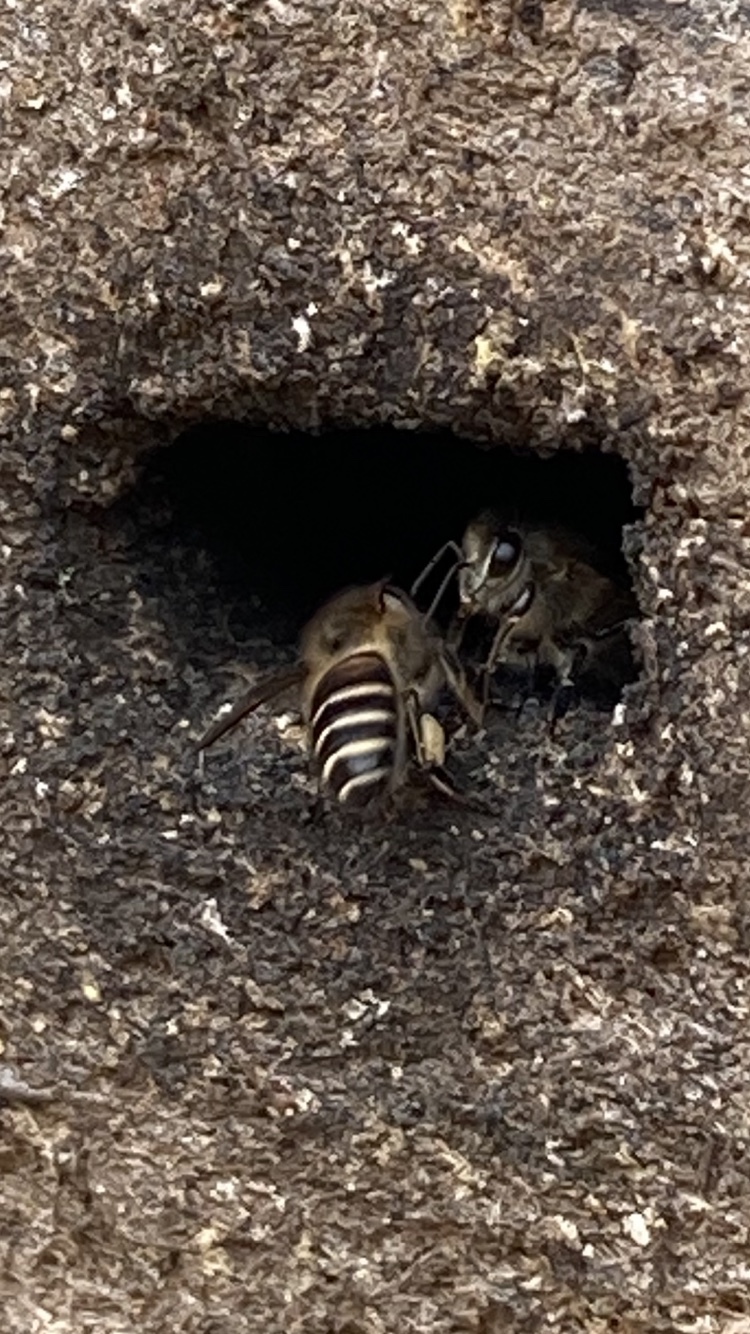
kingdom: Animalia
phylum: Arthropoda
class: Insecta
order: Hymenoptera
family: Apidae
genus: Apis
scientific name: Apis cerana
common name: Honey bee
